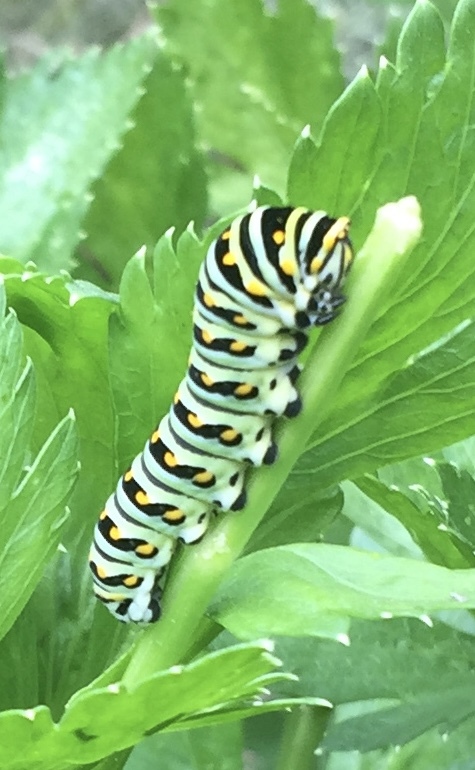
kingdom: Animalia
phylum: Arthropoda
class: Insecta
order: Lepidoptera
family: Papilionidae
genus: Papilio
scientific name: Papilio polyxenes
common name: Black swallowtail
